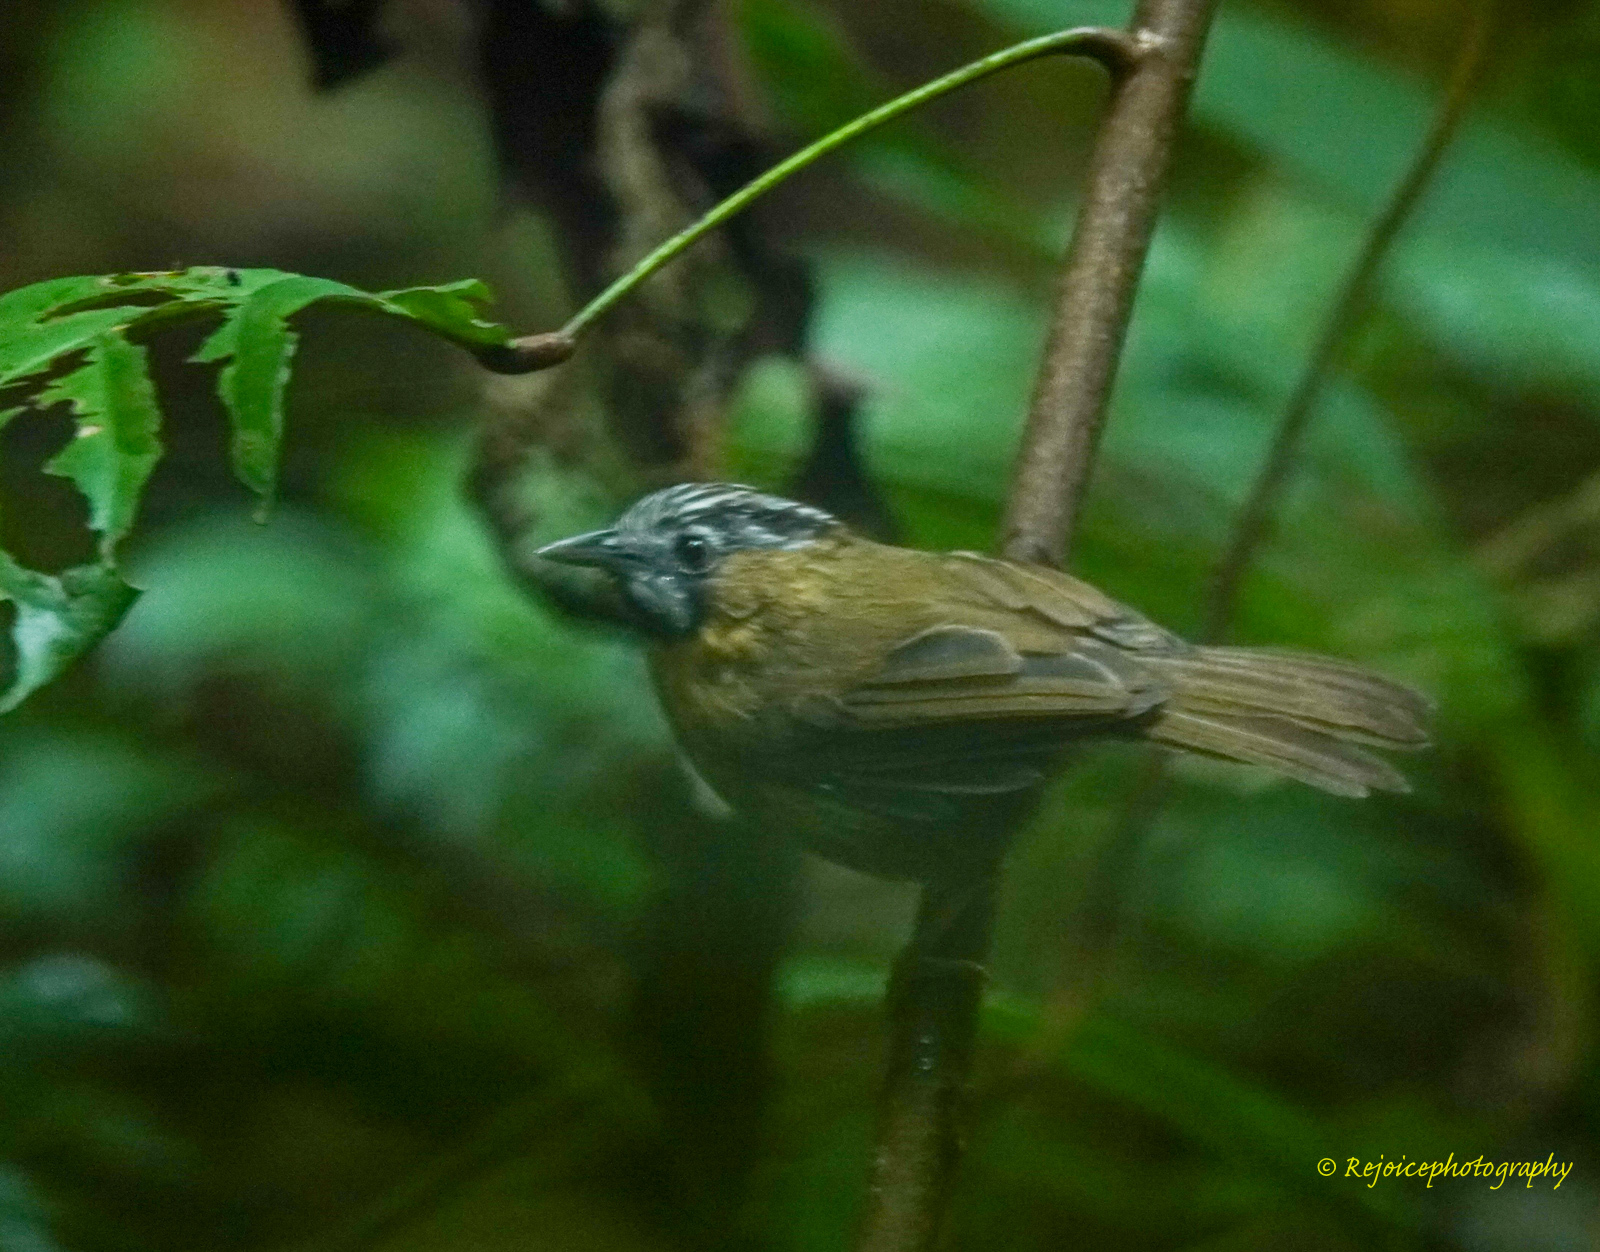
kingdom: Animalia
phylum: Chordata
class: Aves
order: Passeriformes
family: Timaliidae
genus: Stachyris
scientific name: Stachyris nigriceps
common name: Grey-throated babbler
